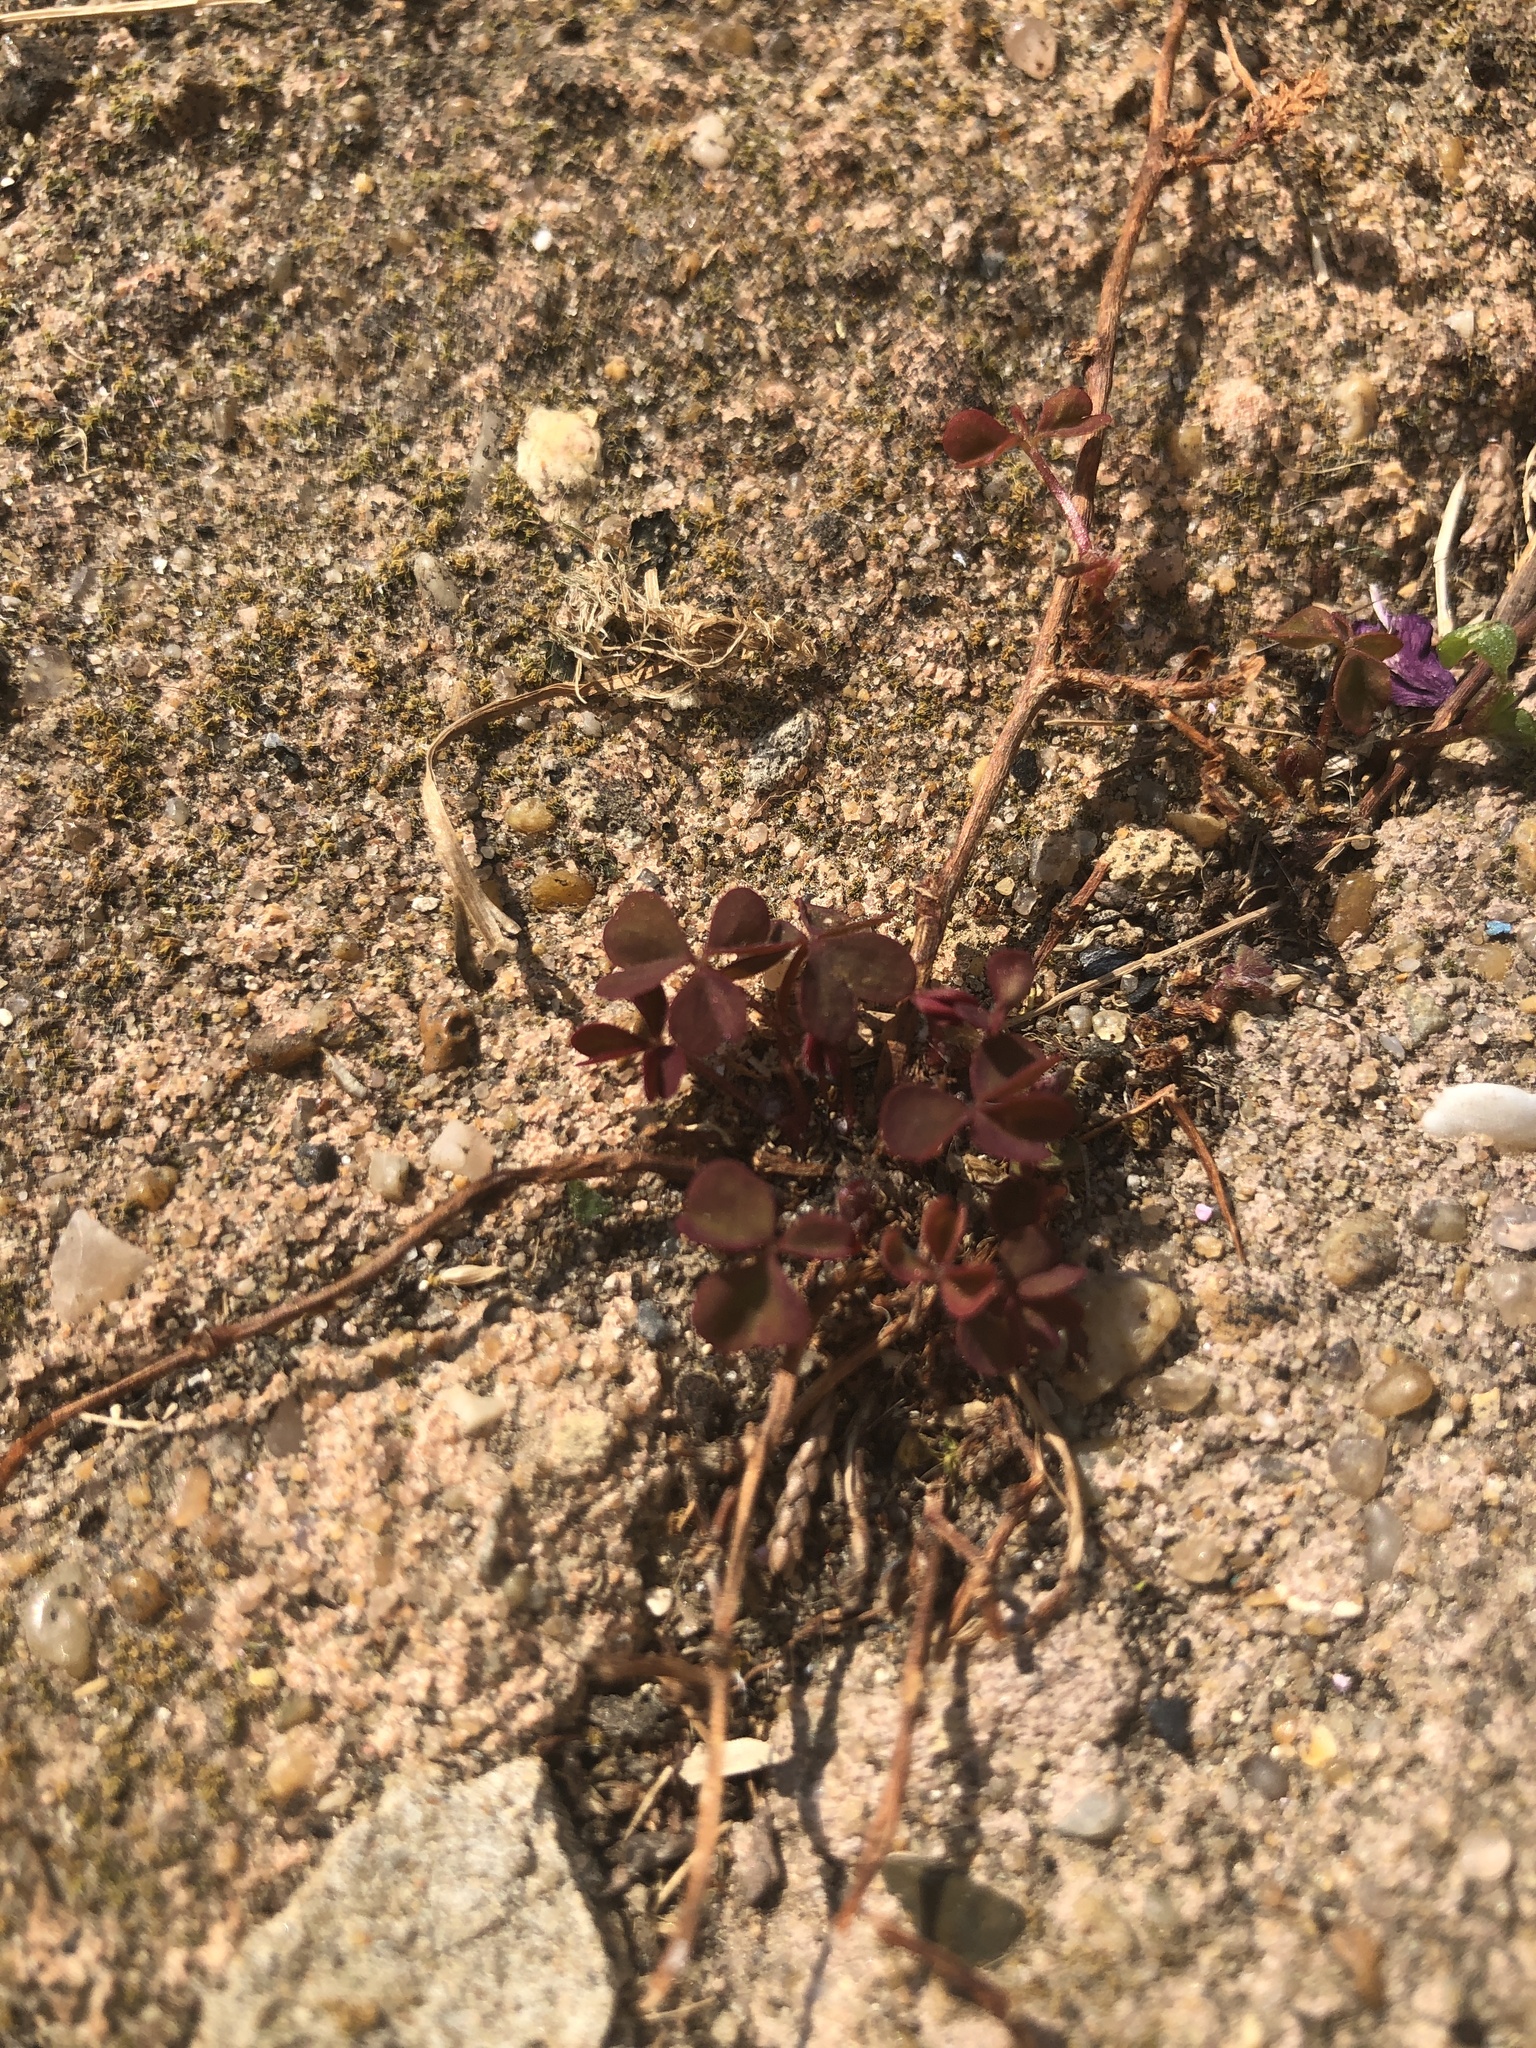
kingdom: Plantae
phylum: Tracheophyta
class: Magnoliopsida
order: Oxalidales
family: Oxalidaceae
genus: Oxalis
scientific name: Oxalis corniculata
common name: Procumbent yellow-sorrel
